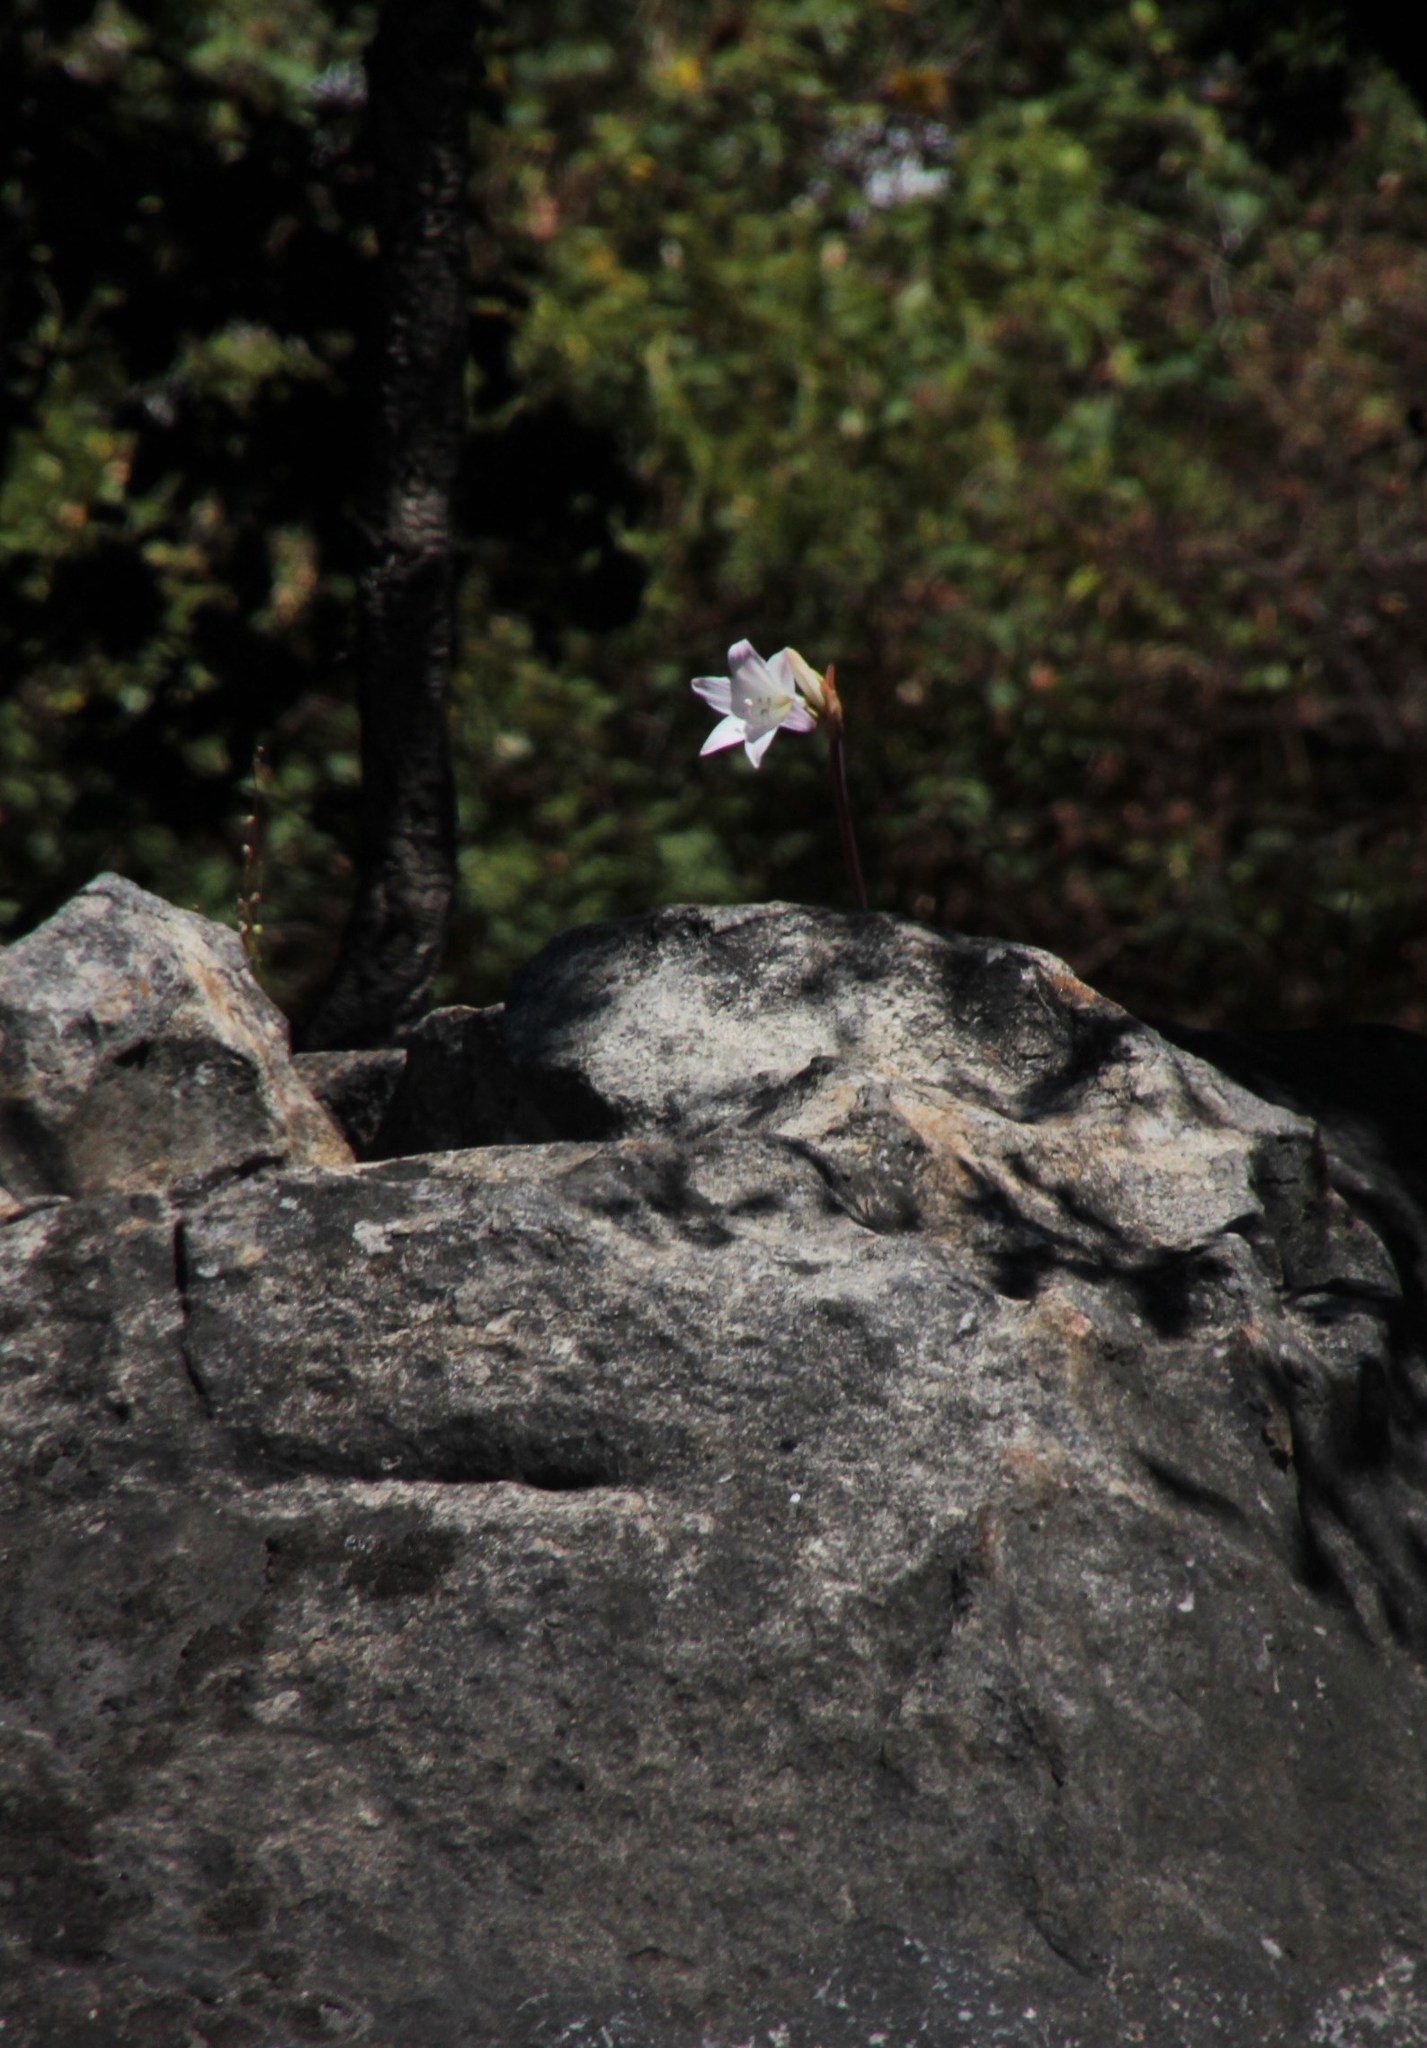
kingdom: Plantae
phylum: Tracheophyta
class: Liliopsida
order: Asparagales
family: Amaryllidaceae
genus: Amaryllis
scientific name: Amaryllis belladonna
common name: Jersey lily
